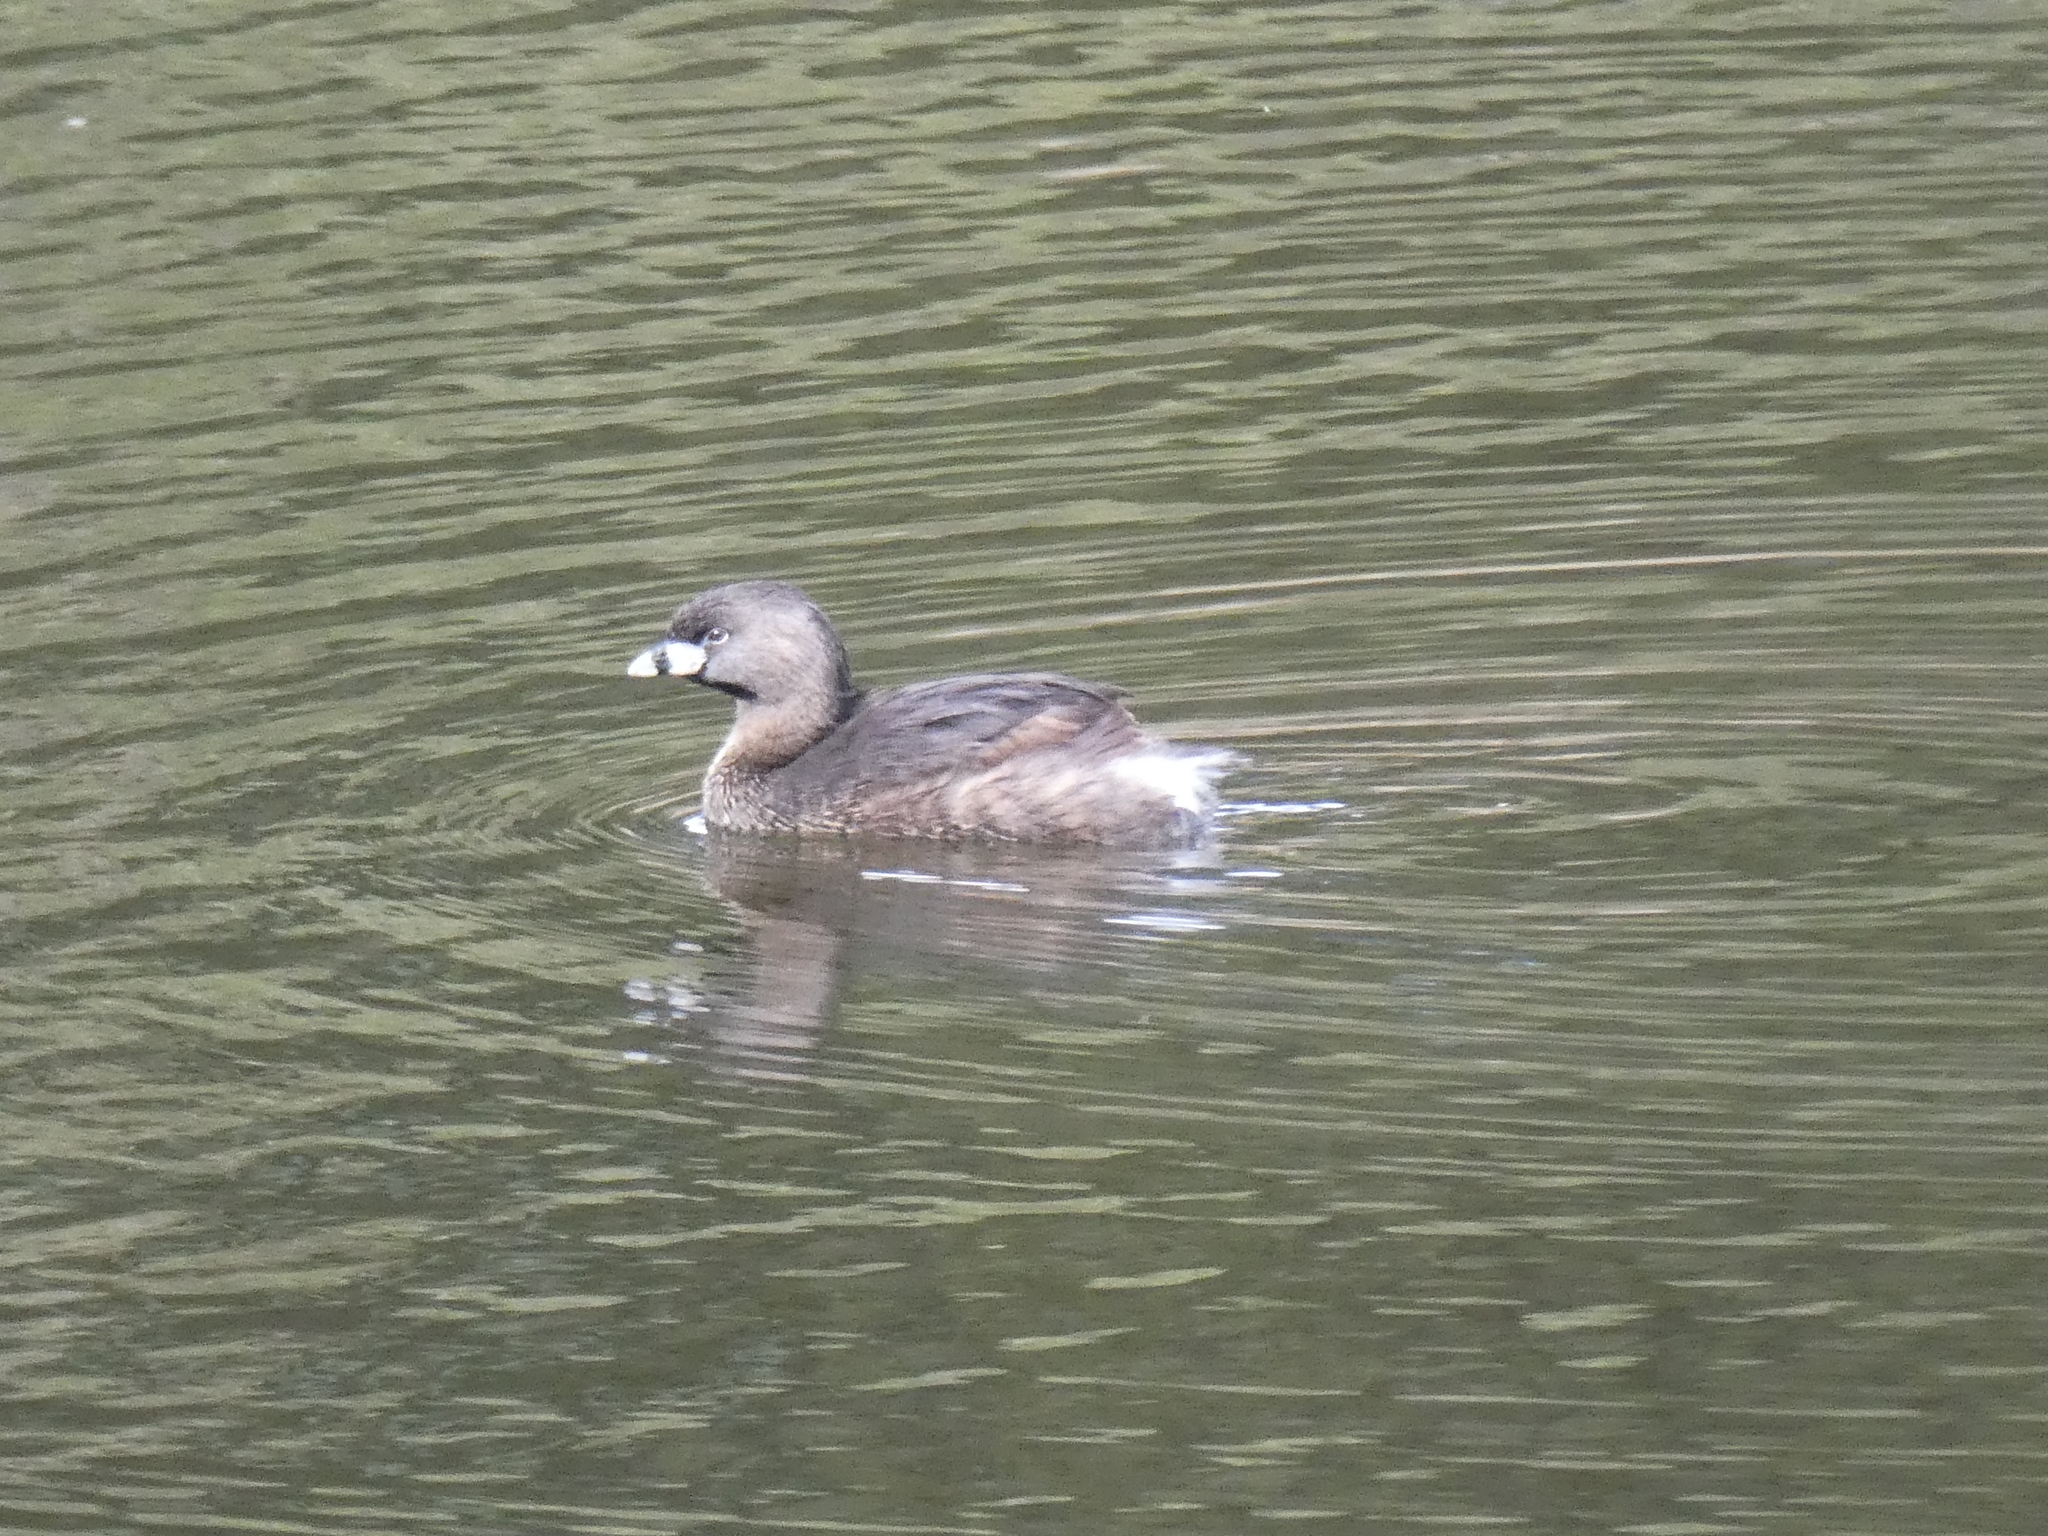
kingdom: Animalia
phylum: Chordata
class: Aves
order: Podicipediformes
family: Podicipedidae
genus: Podilymbus
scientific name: Podilymbus podiceps
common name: Pied-billed grebe
